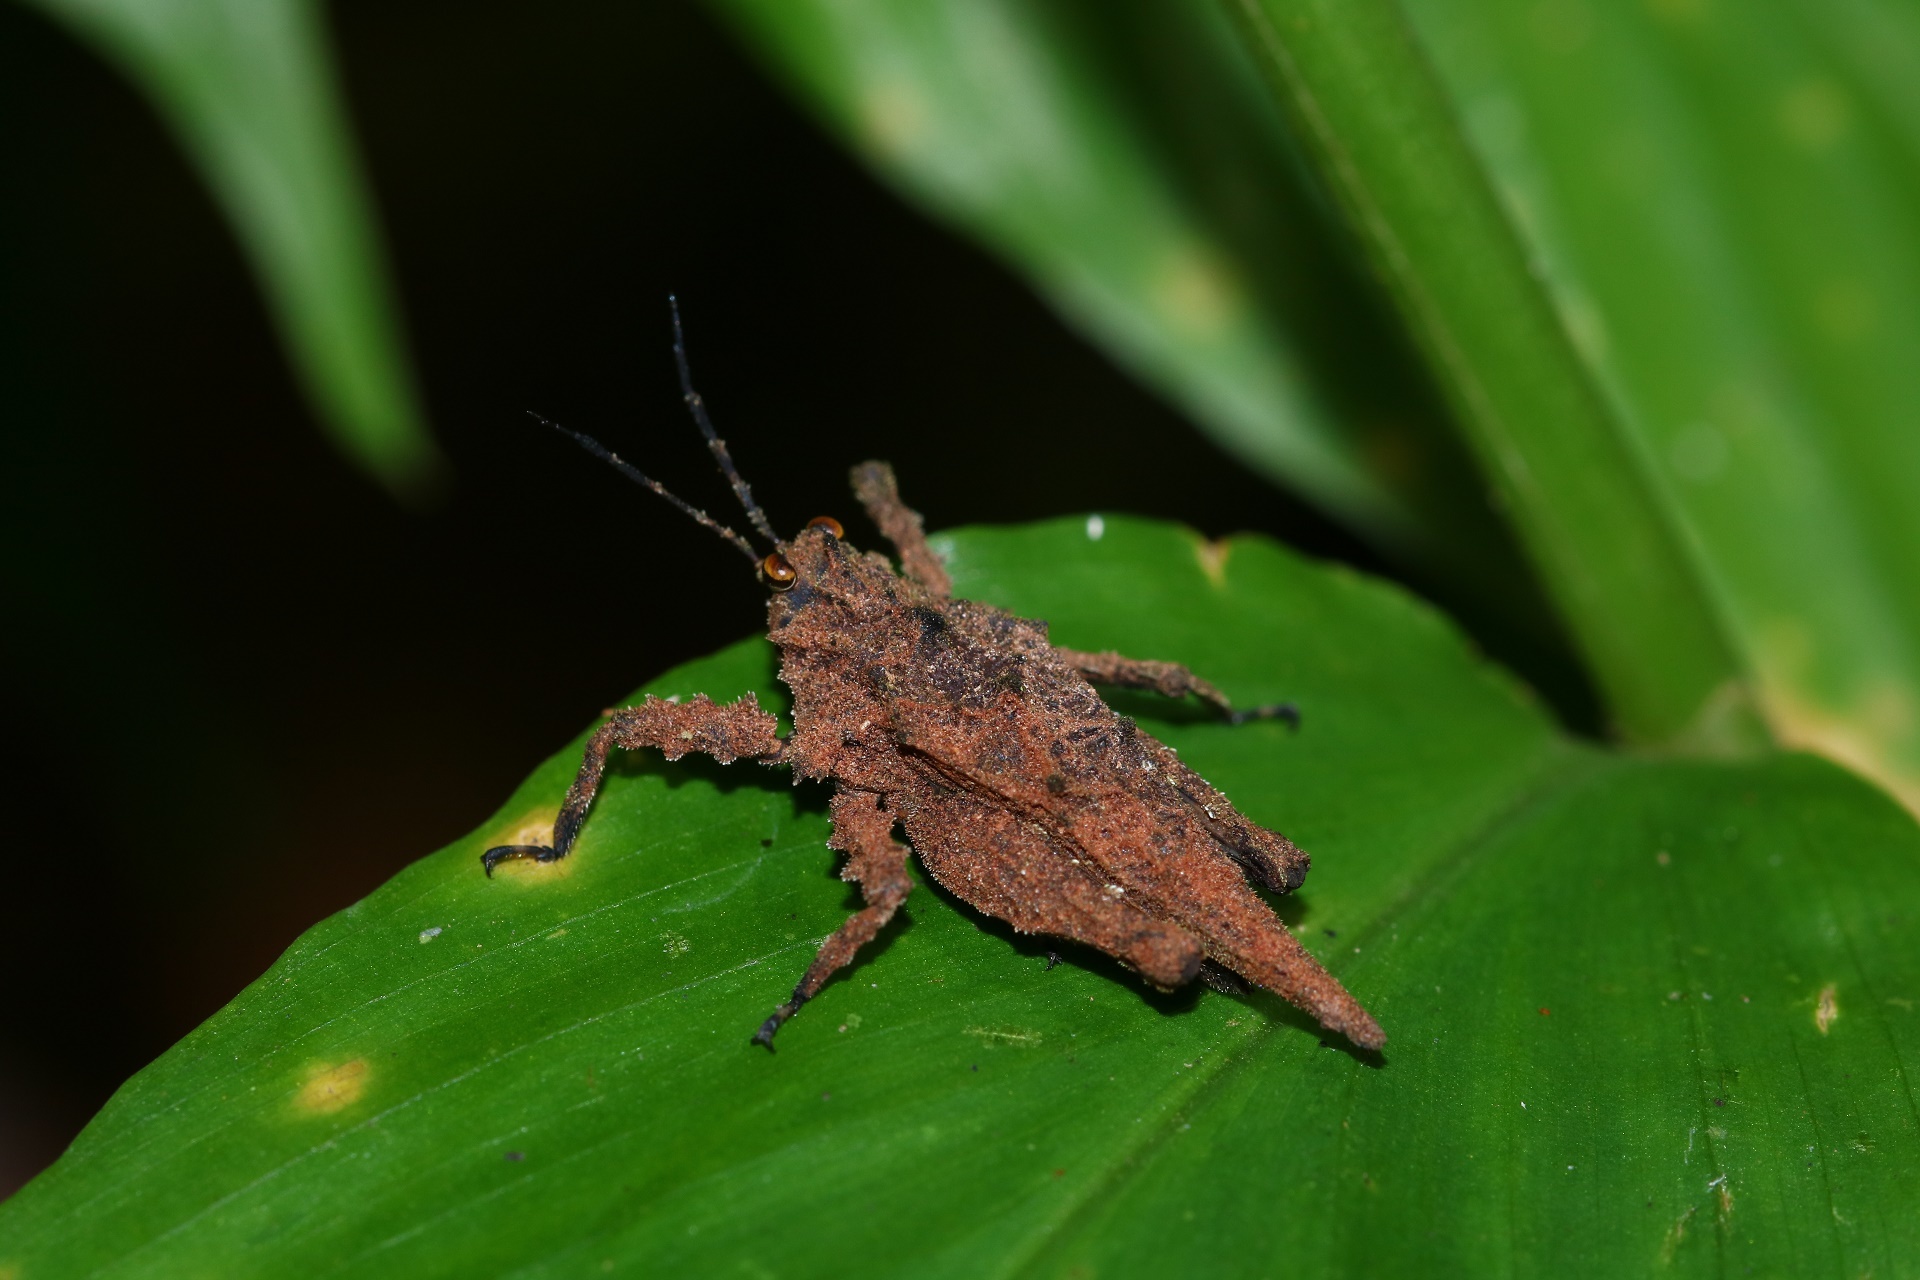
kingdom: Animalia
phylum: Arthropoda
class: Insecta
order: Orthoptera
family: Tetrigidae
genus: Discotettix
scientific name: Discotettix kirscheyi
